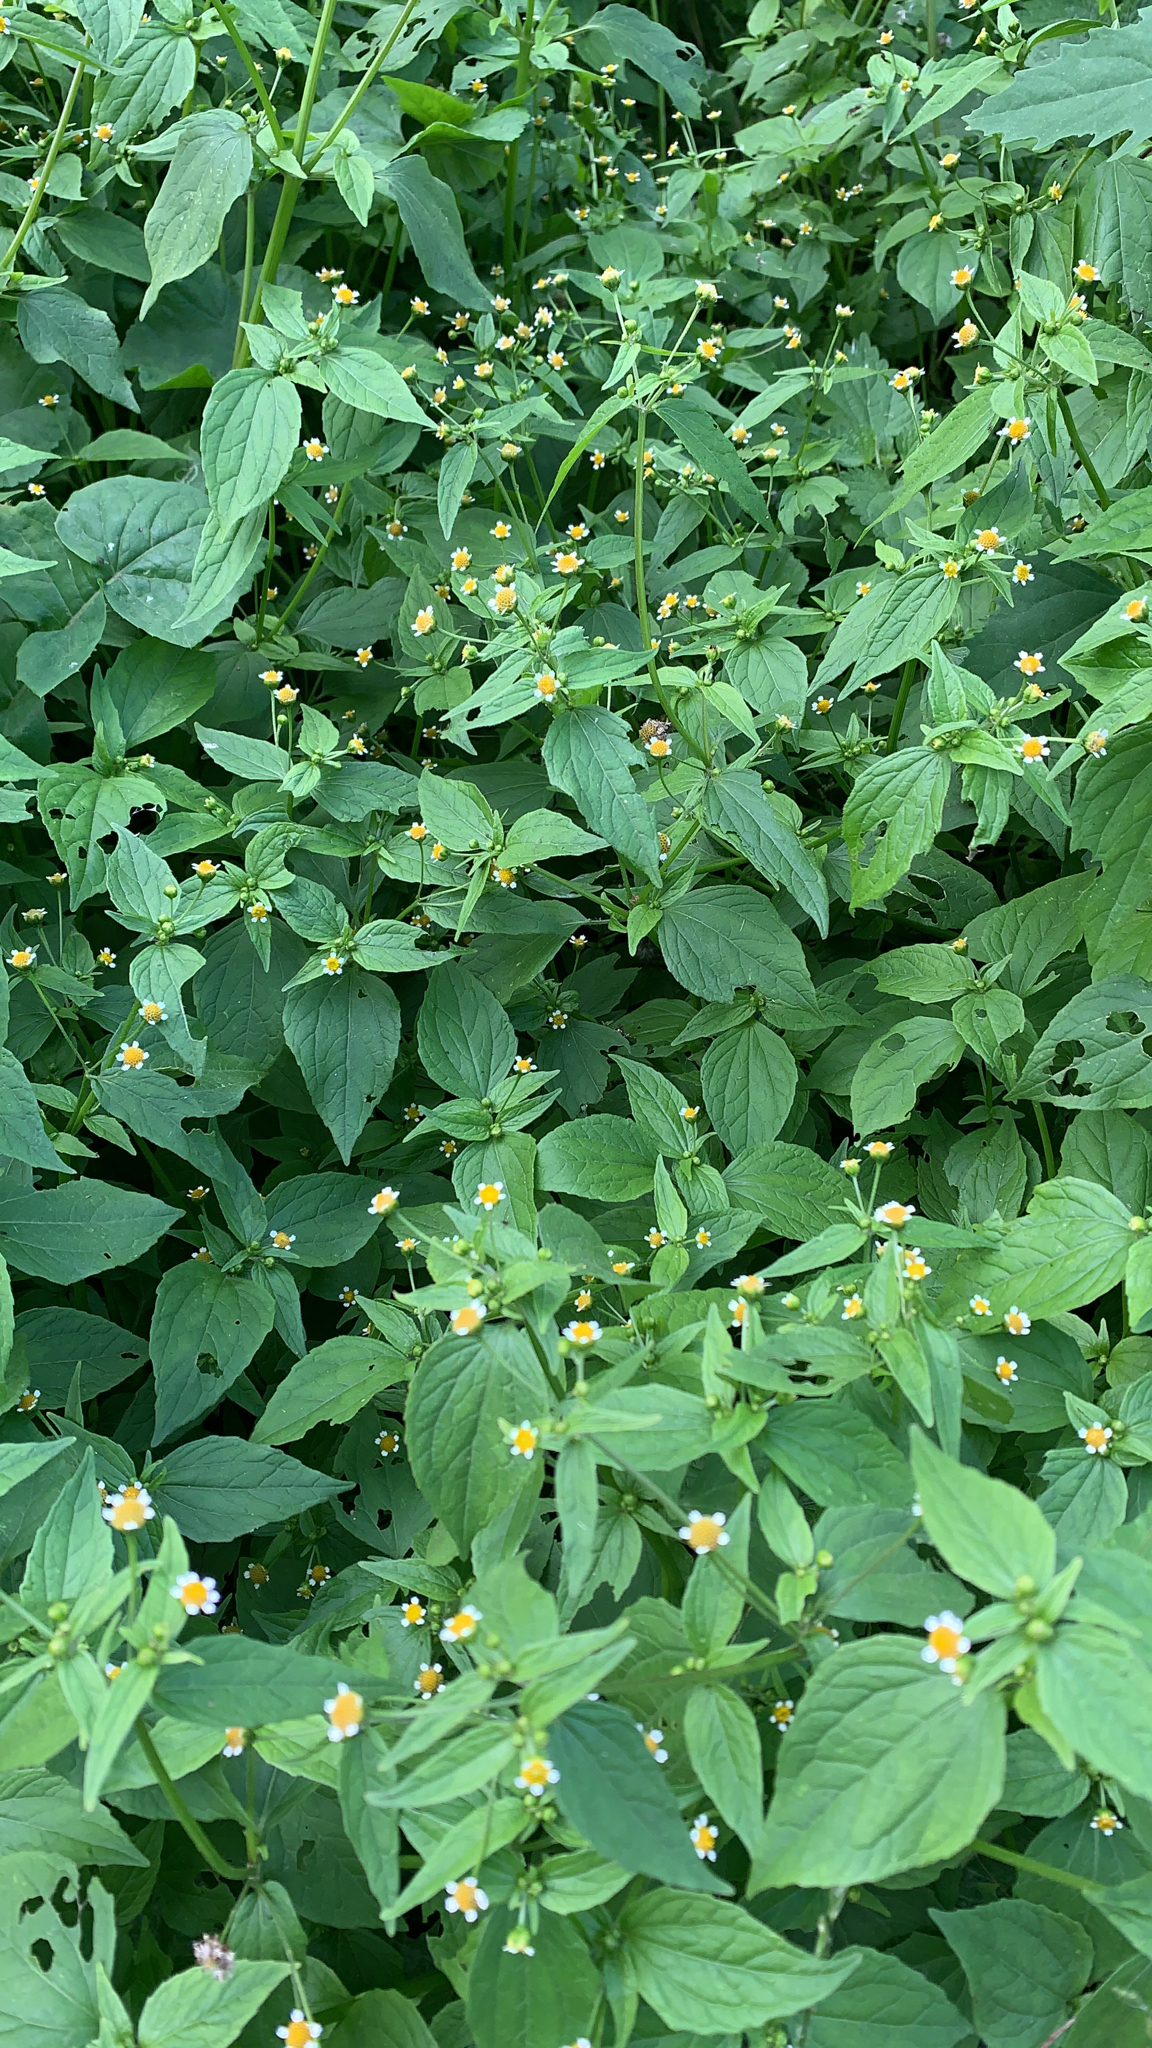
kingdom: Plantae
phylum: Tracheophyta
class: Magnoliopsida
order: Asterales
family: Asteraceae
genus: Galinsoga
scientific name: Galinsoga parviflora
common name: Gallant soldier
